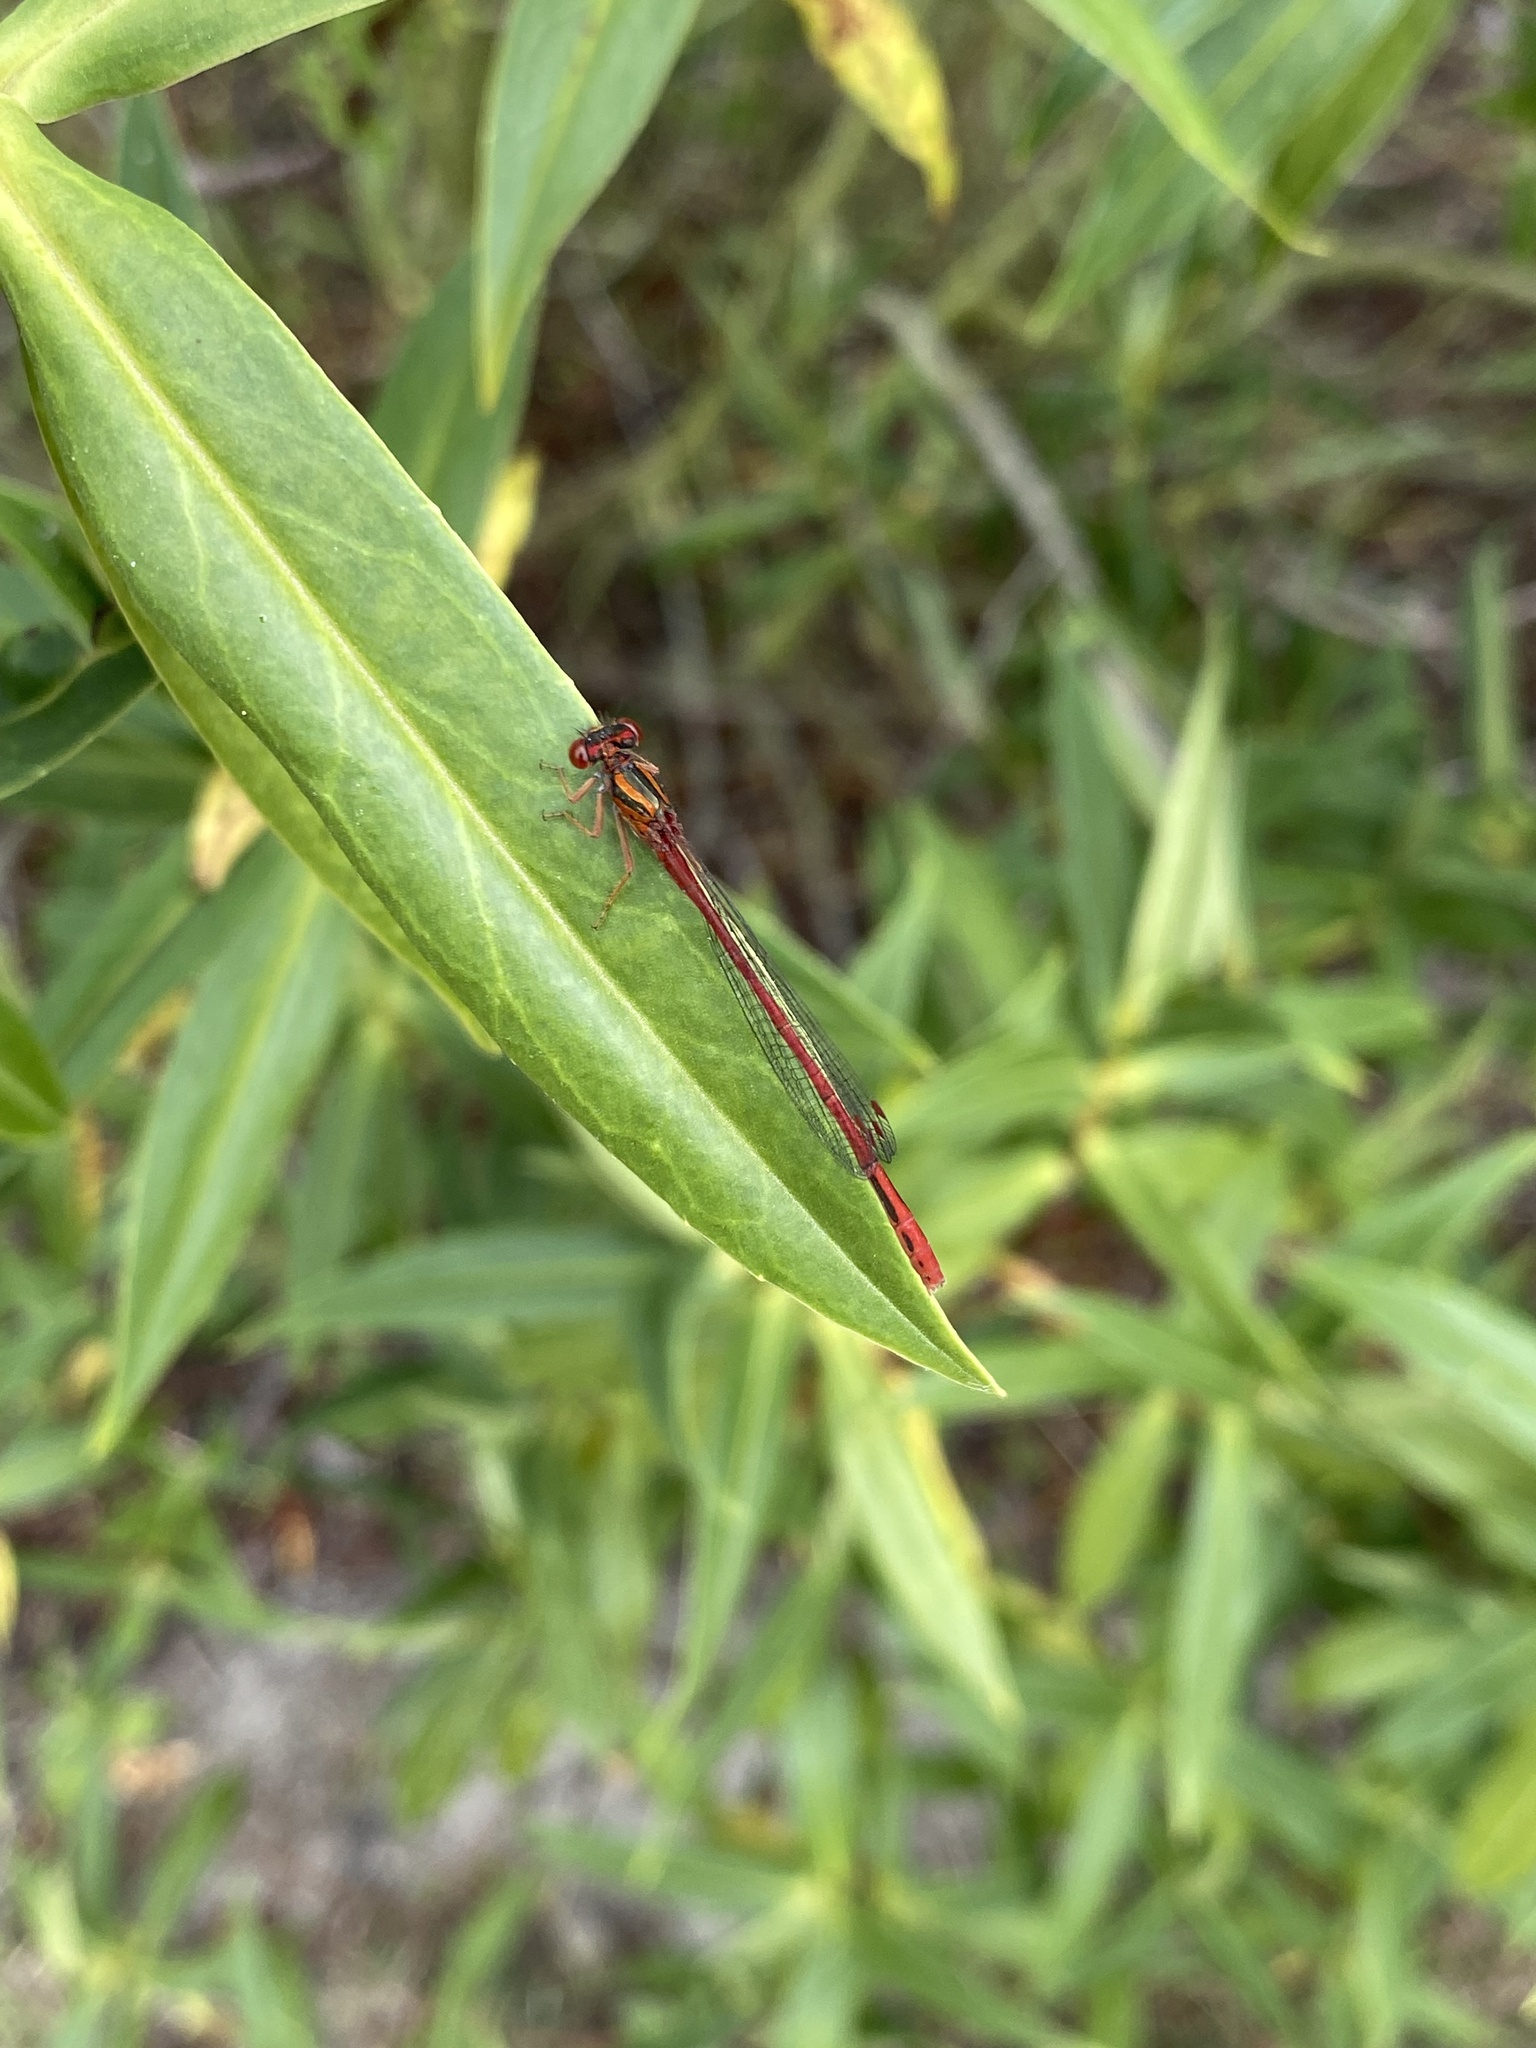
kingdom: Animalia
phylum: Arthropoda
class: Insecta
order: Odonata
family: Coenagrionidae
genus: Xanthocnemis
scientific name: Xanthocnemis zealandica
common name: Common redcoat damselfly
